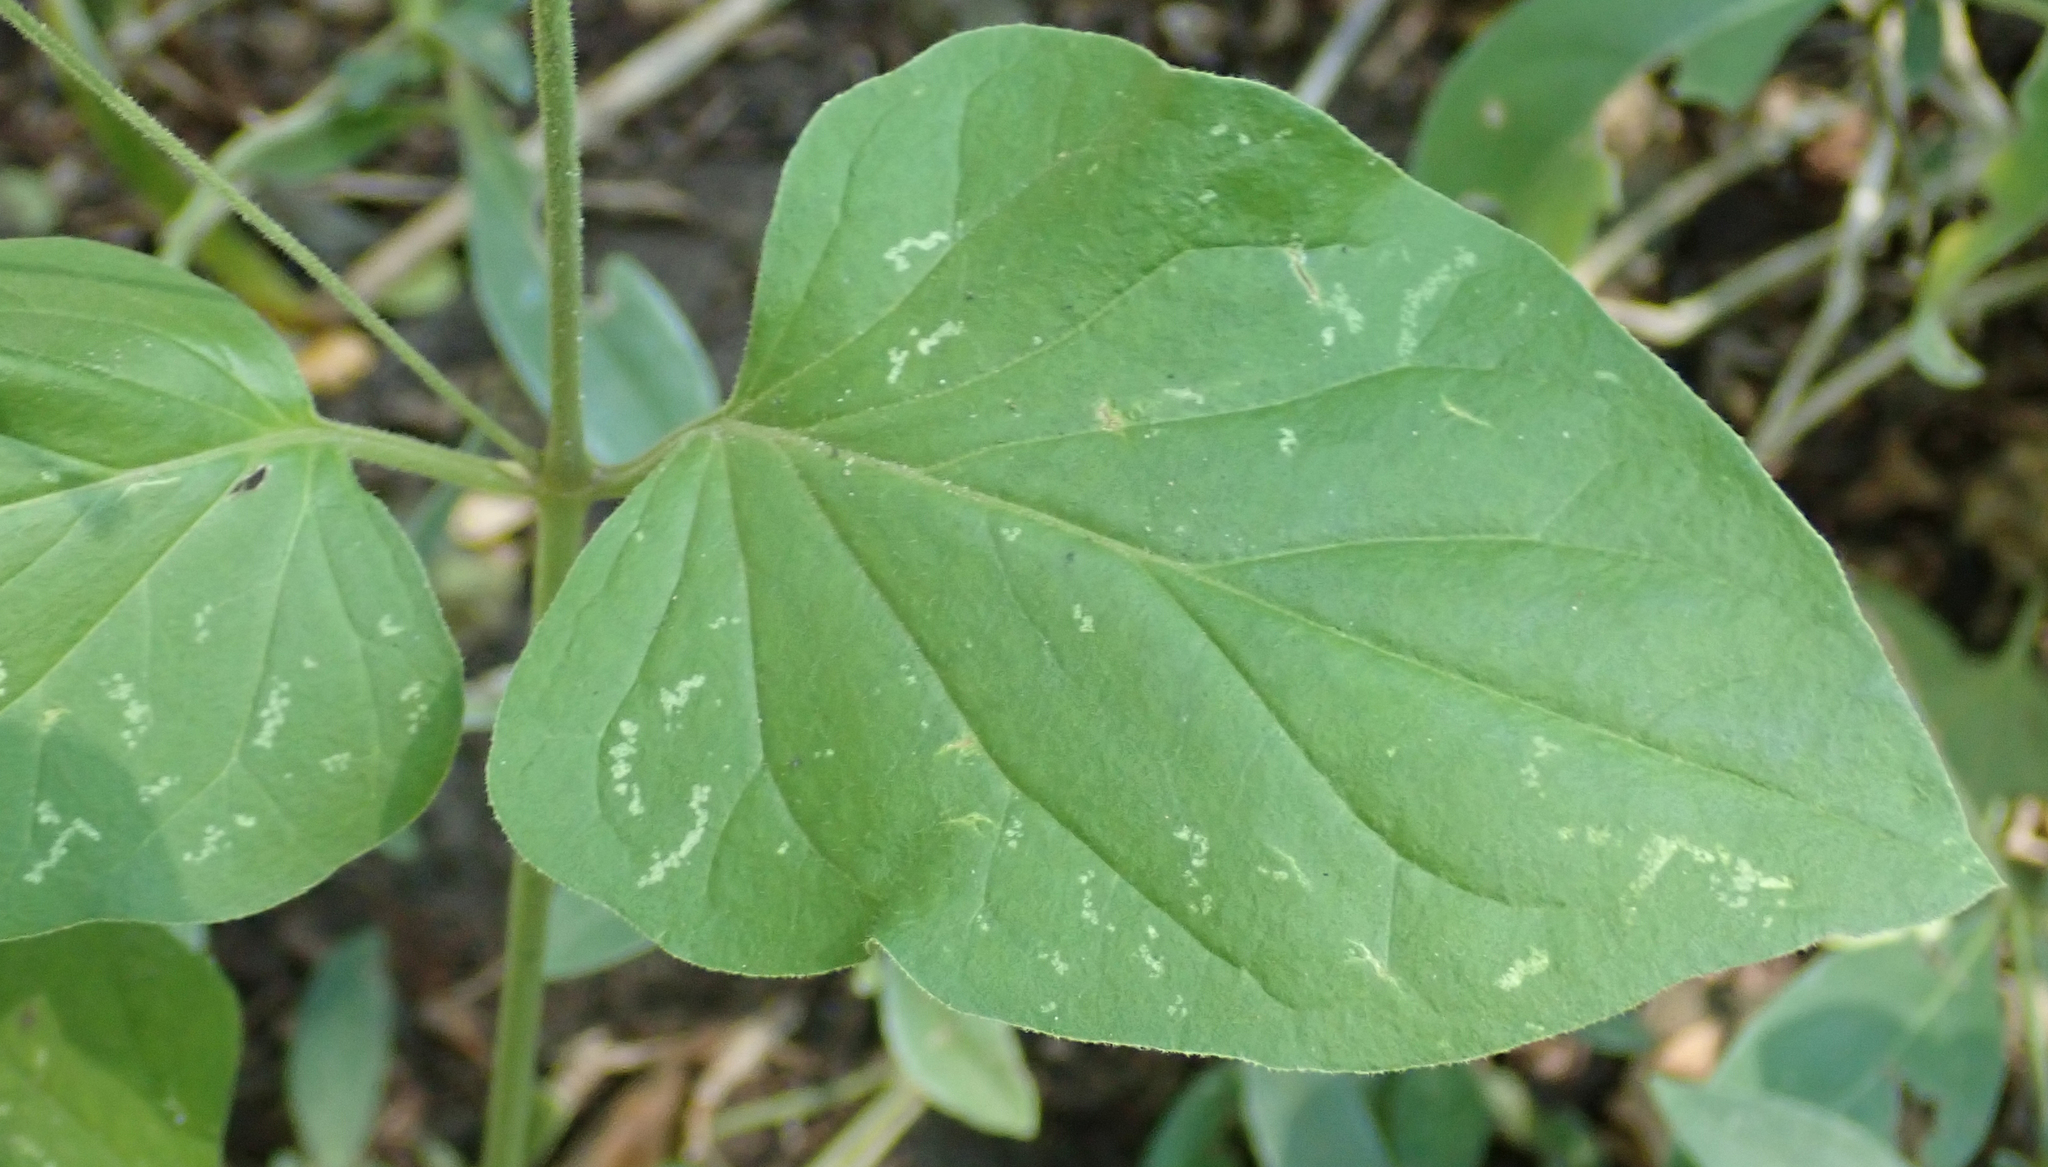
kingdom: Plantae
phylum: Tracheophyta
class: Magnoliopsida
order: Caryophyllales
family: Nyctaginaceae
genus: Commicarpus
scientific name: Commicarpus plumbagineus
